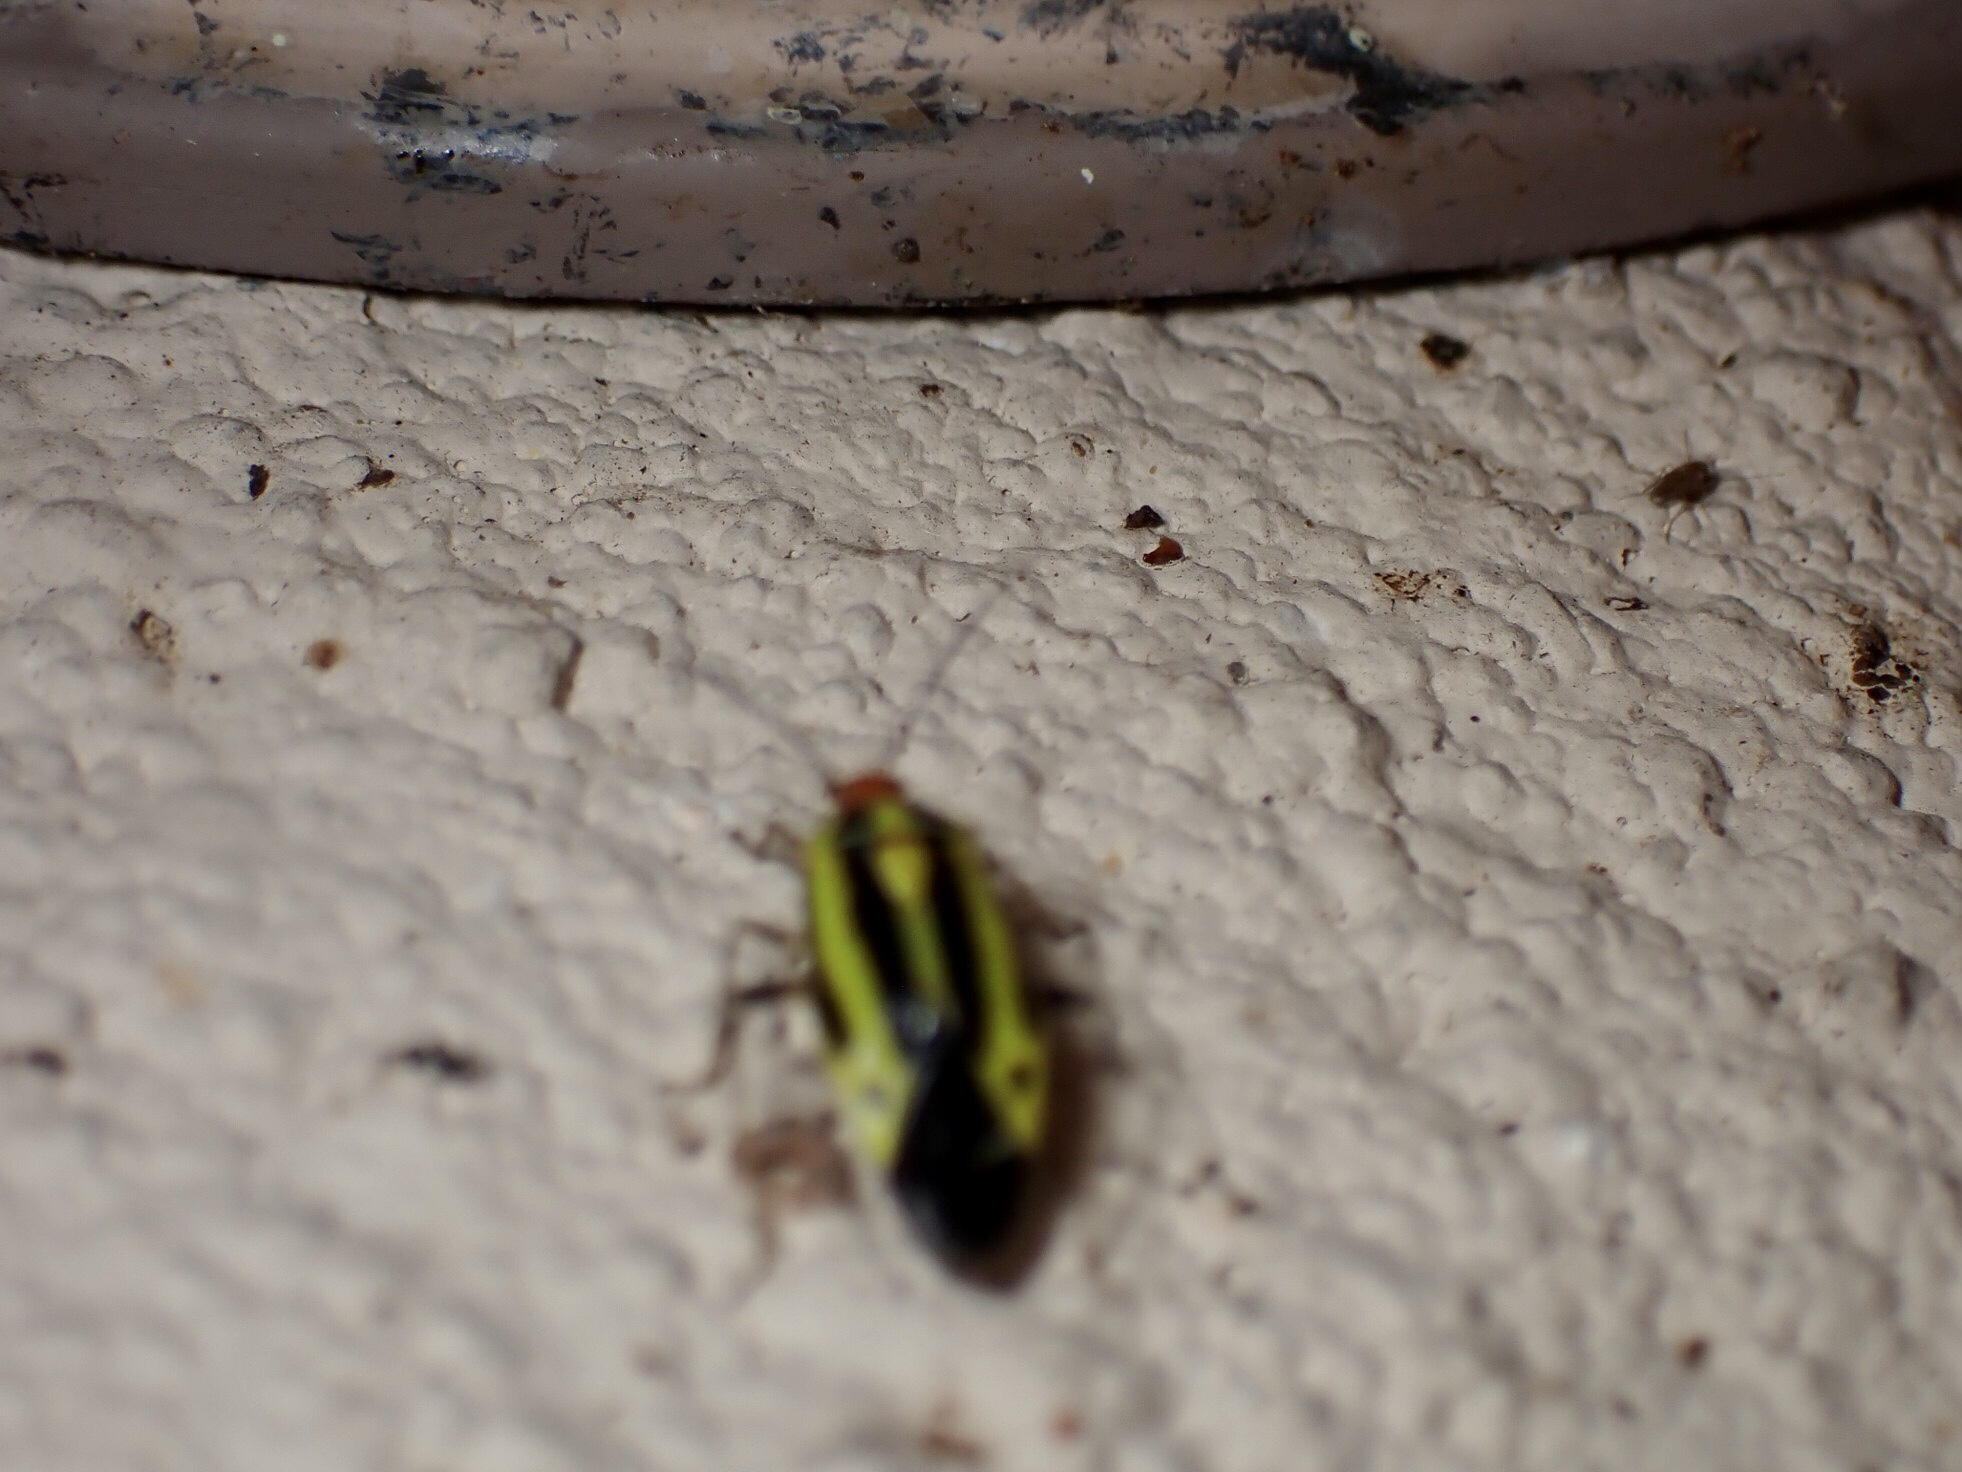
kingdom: Animalia
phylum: Arthropoda
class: Insecta
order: Hemiptera
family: Miridae
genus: Poecilocapsus
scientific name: Poecilocapsus lineatus
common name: Four-lined plant bug
